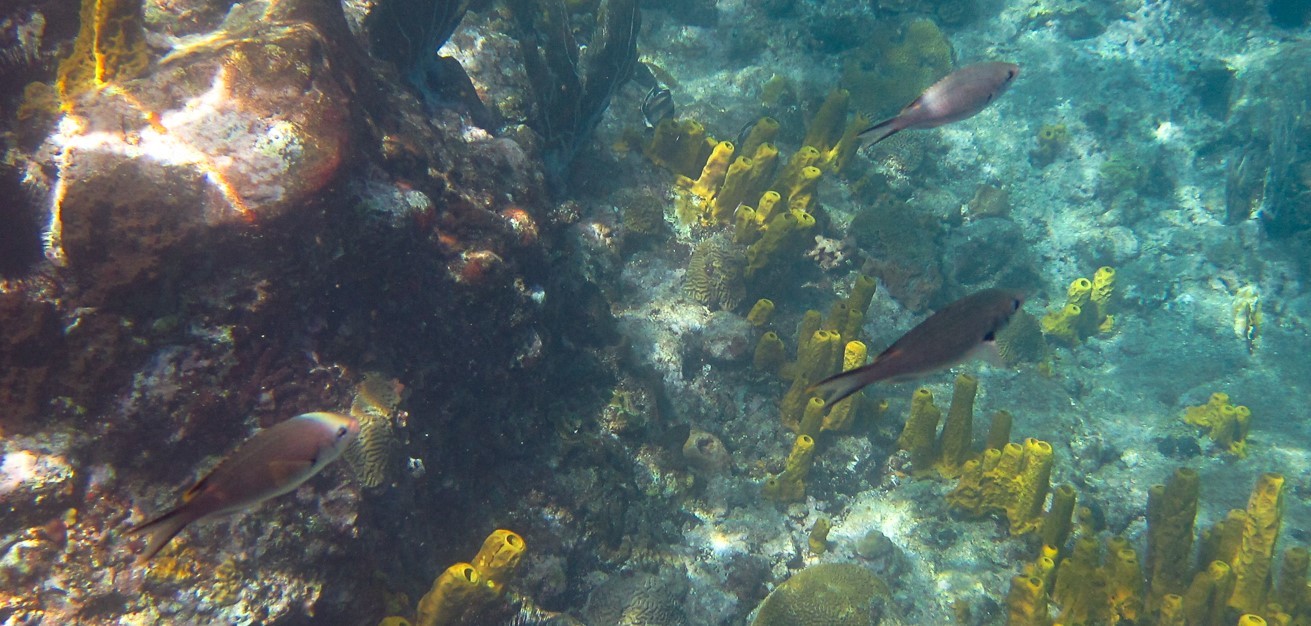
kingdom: Animalia
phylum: Chordata
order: Perciformes
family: Pomacentridae
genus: Chromis
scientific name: Chromis multilineata
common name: Brown chromis
